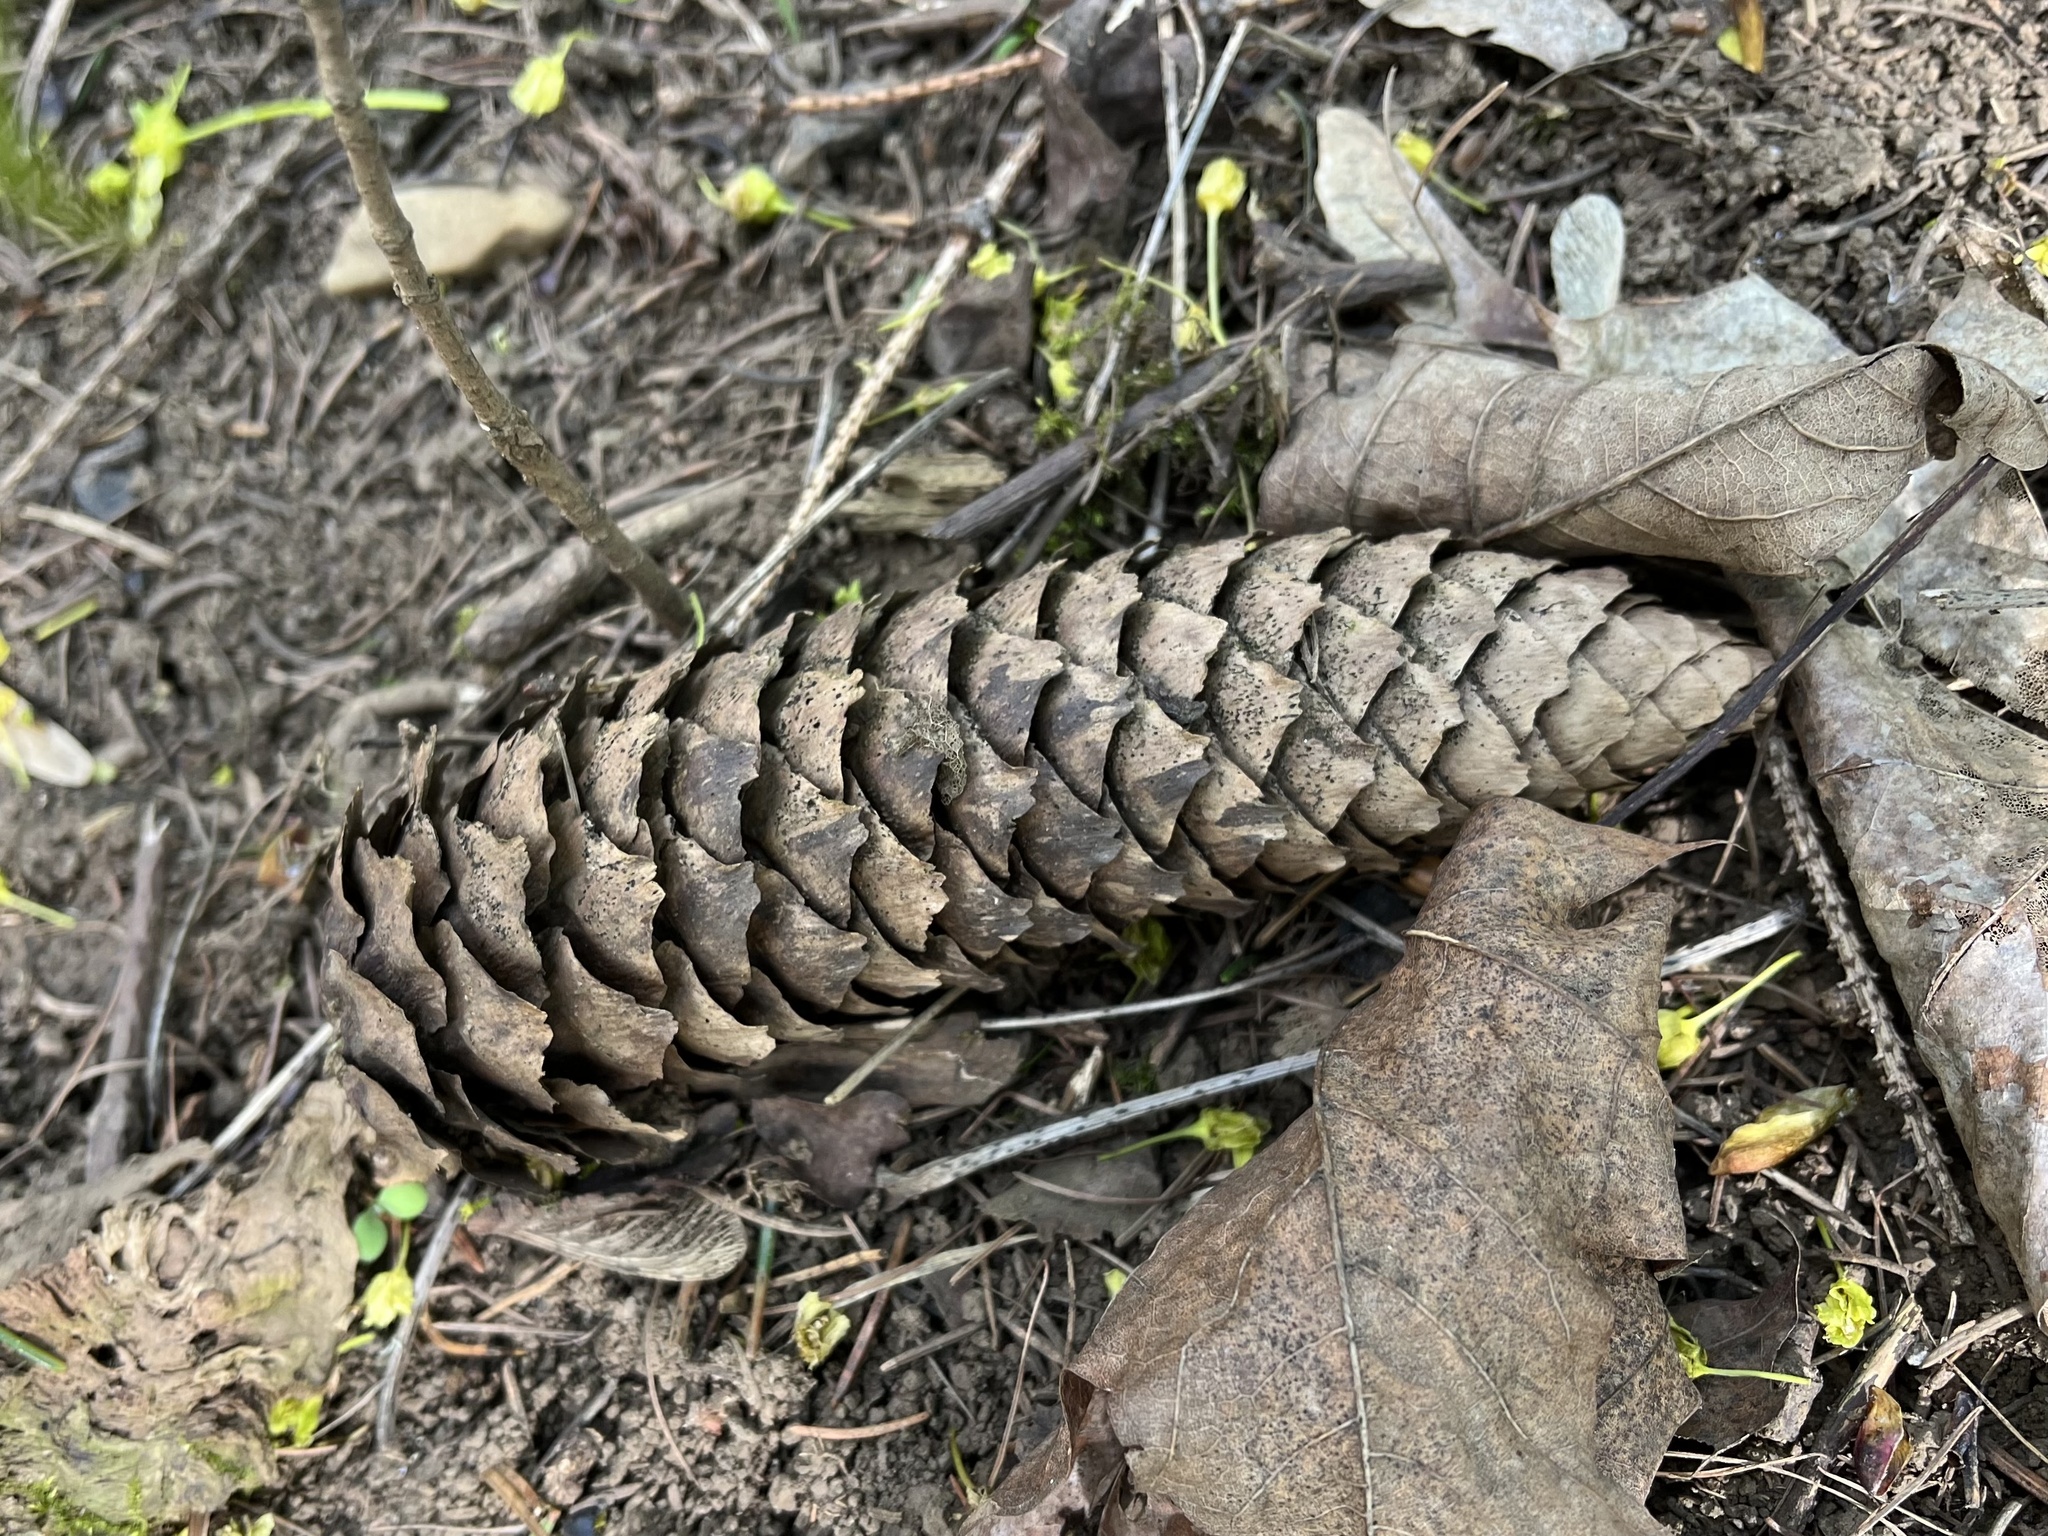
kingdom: Plantae
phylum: Tracheophyta
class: Pinopsida
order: Pinales
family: Pinaceae
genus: Picea
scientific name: Picea abies
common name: Norway spruce
